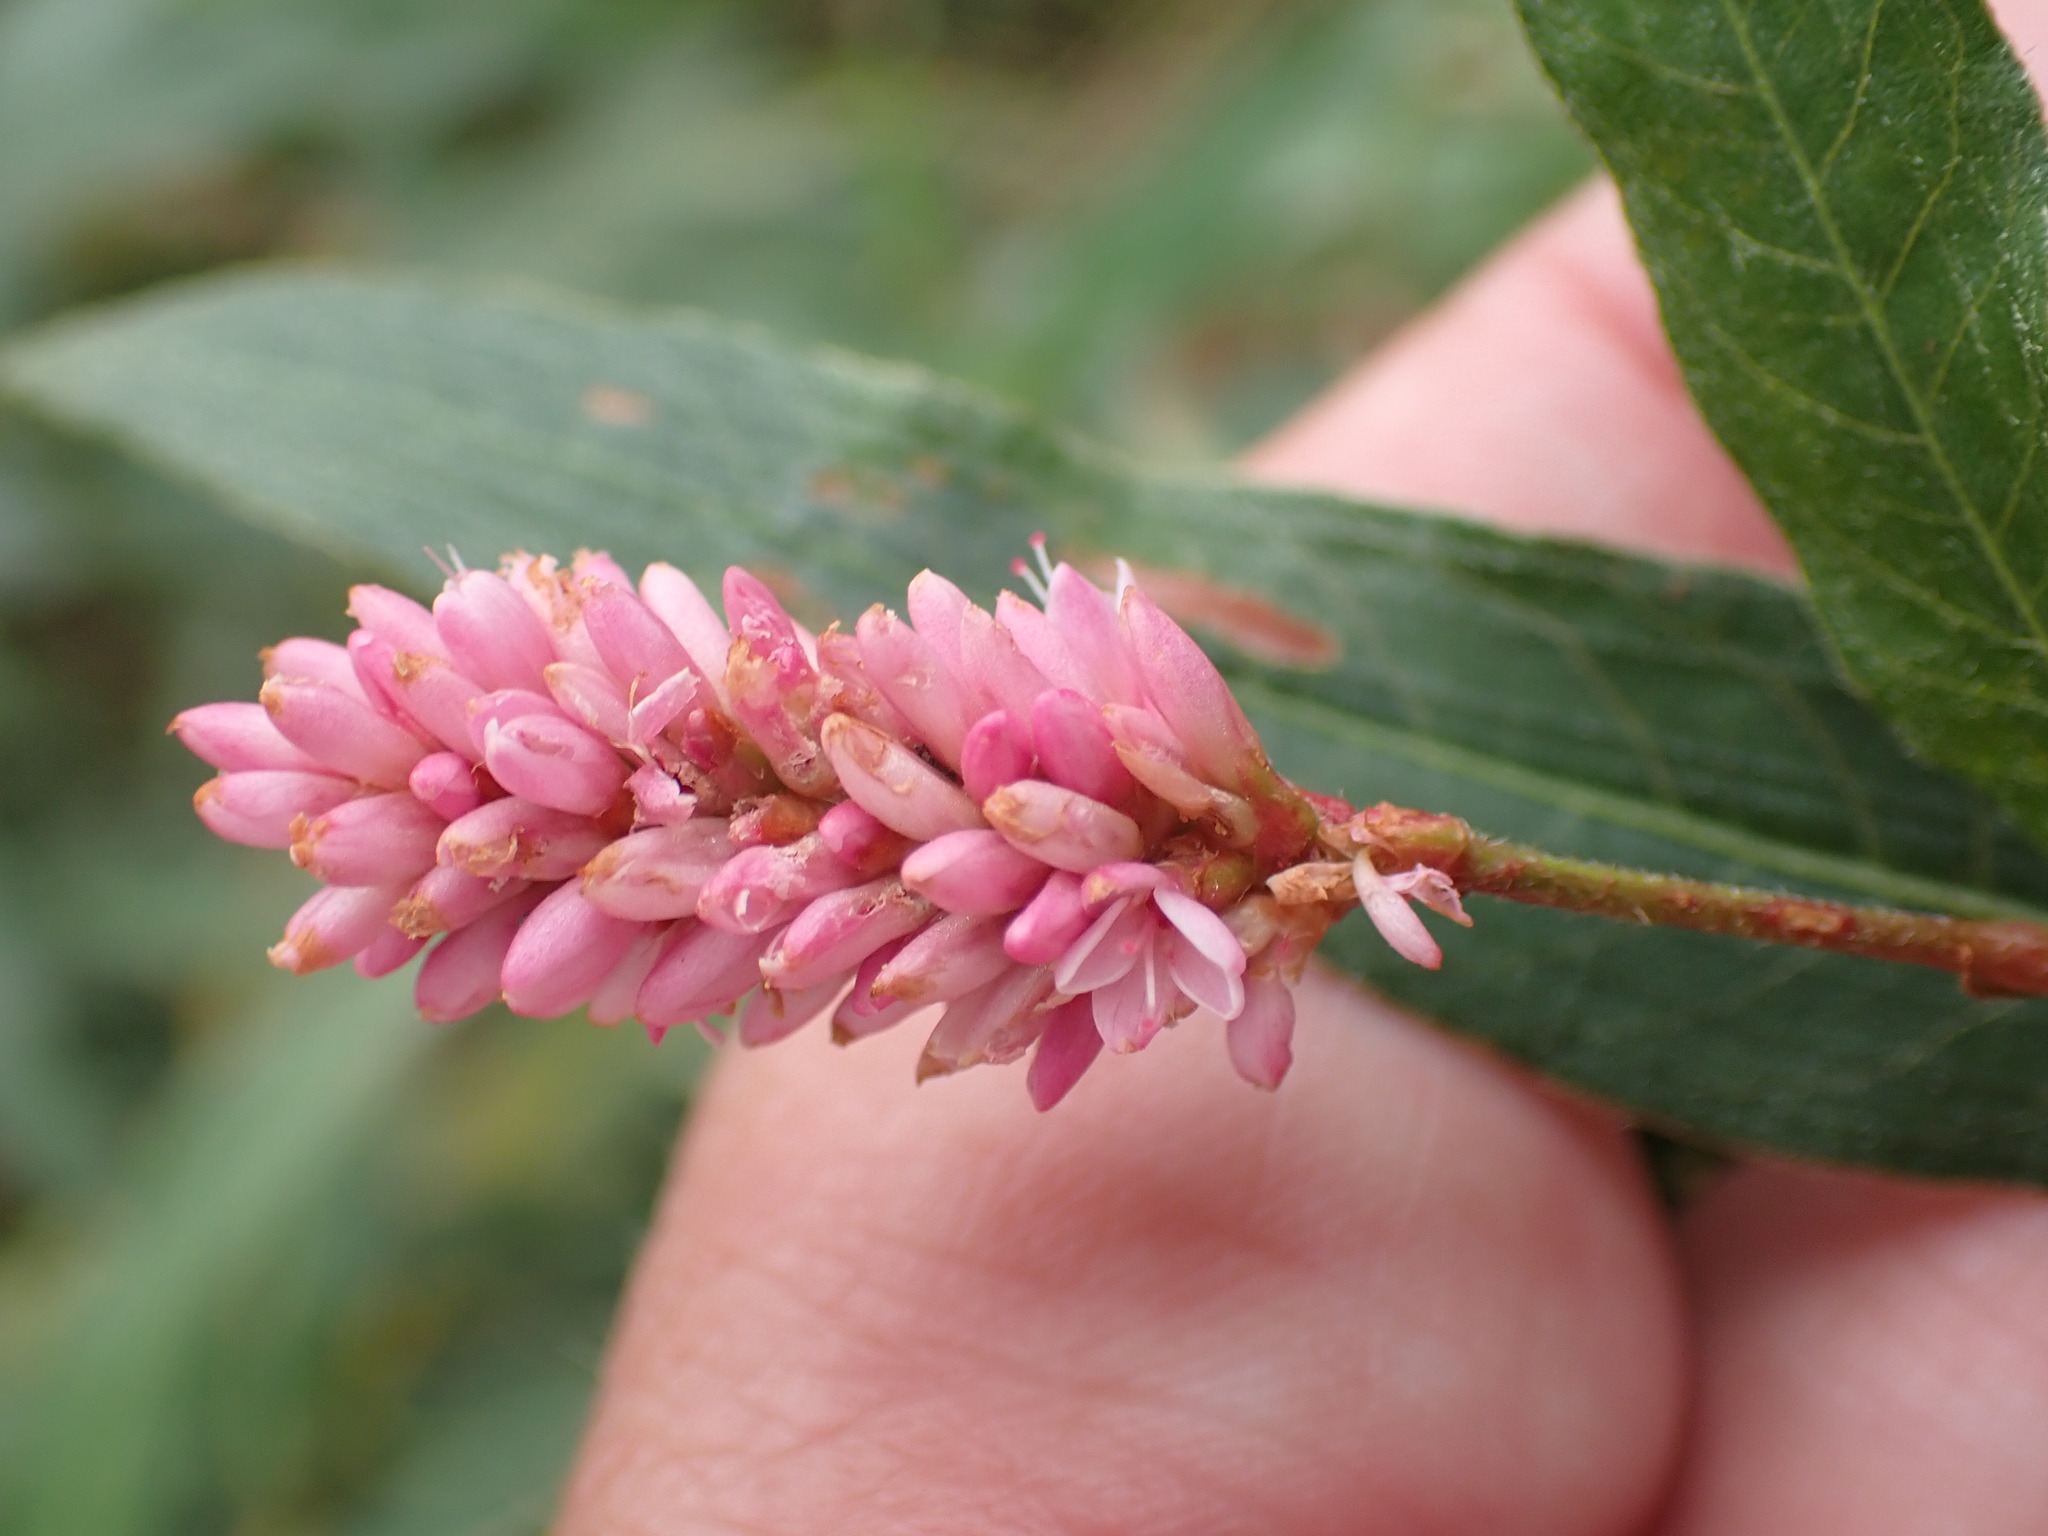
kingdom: Plantae
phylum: Tracheophyta
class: Magnoliopsida
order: Caryophyllales
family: Polygonaceae
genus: Persicaria
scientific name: Persicaria amphibia
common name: Amphibious bistort
